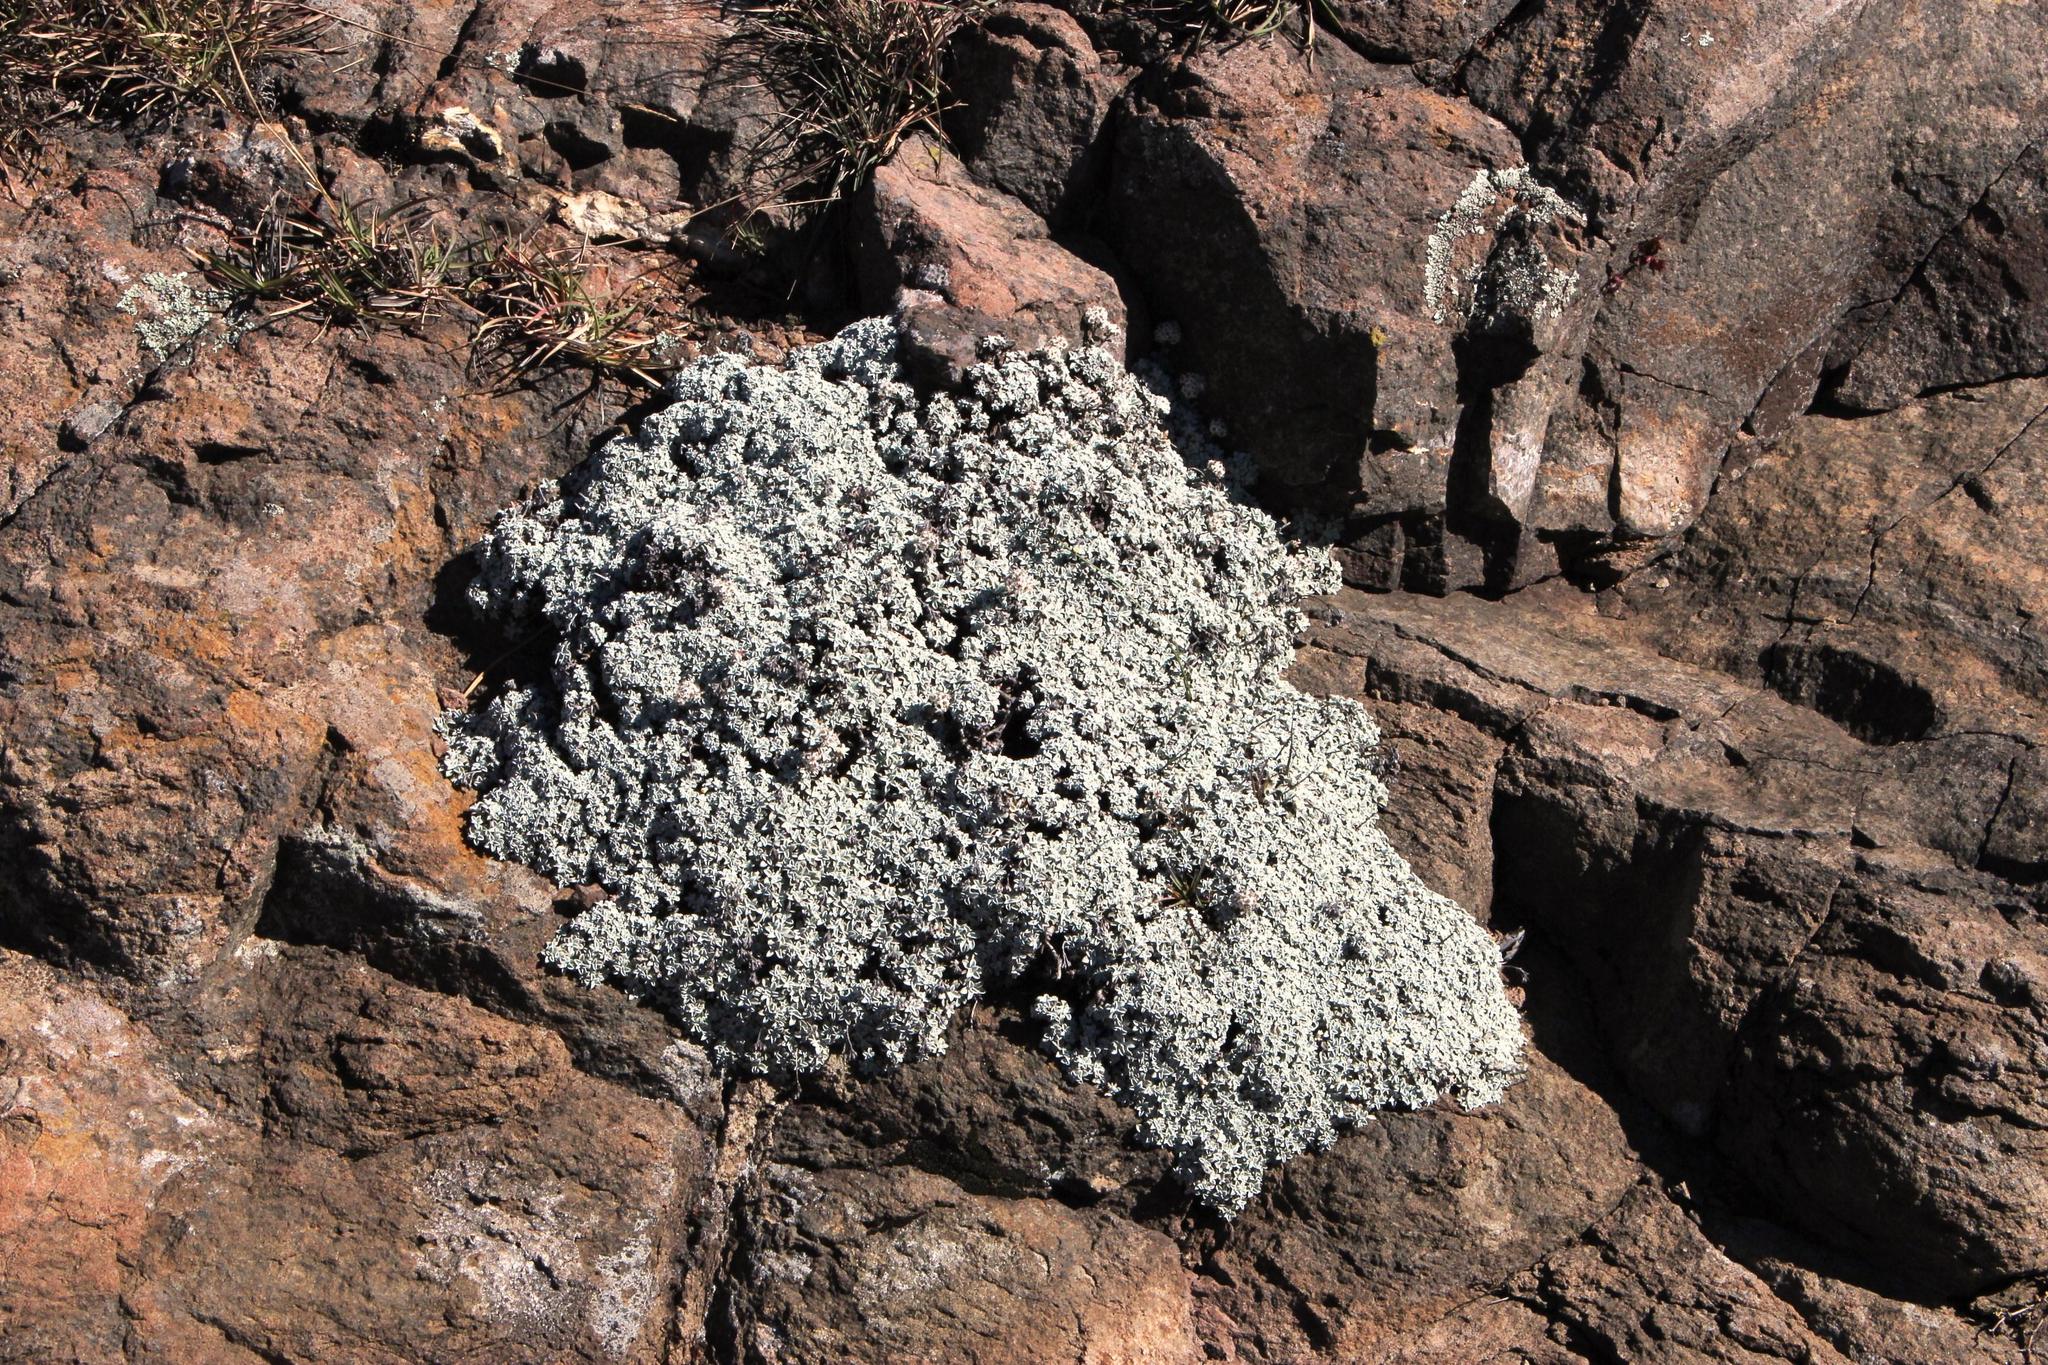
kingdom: Plantae
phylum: Tracheophyta
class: Magnoliopsida
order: Asterales
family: Asteraceae
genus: Helichrysum
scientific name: Helichrysum confertum
